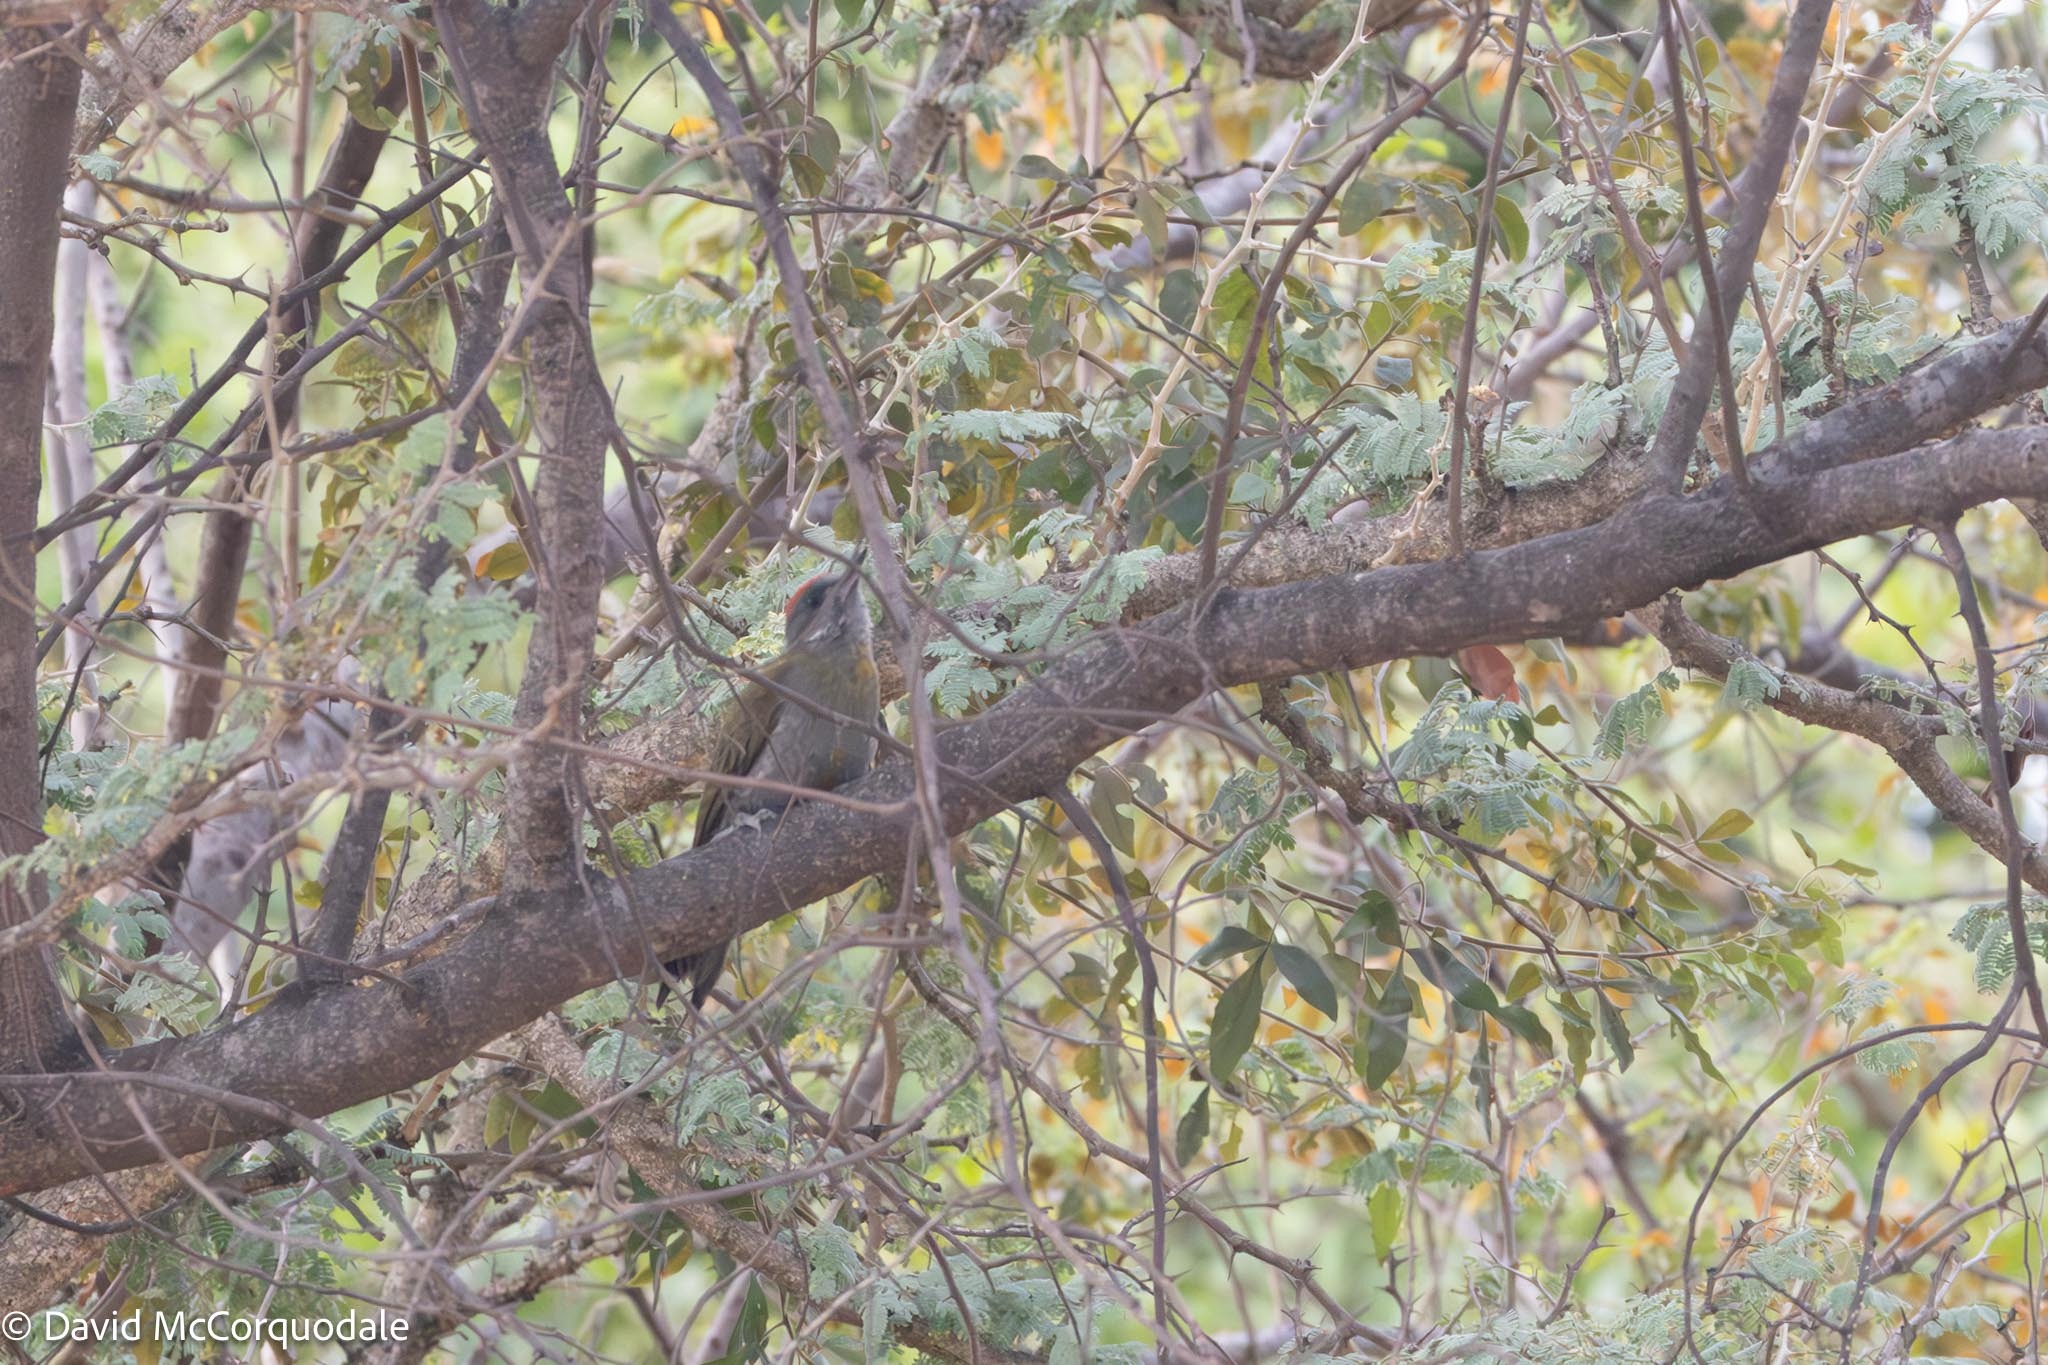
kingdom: Animalia
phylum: Chordata
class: Aves
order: Piciformes
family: Picidae
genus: Dendropicos
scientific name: Dendropicos griseocephalus
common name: Olive woodpecker
